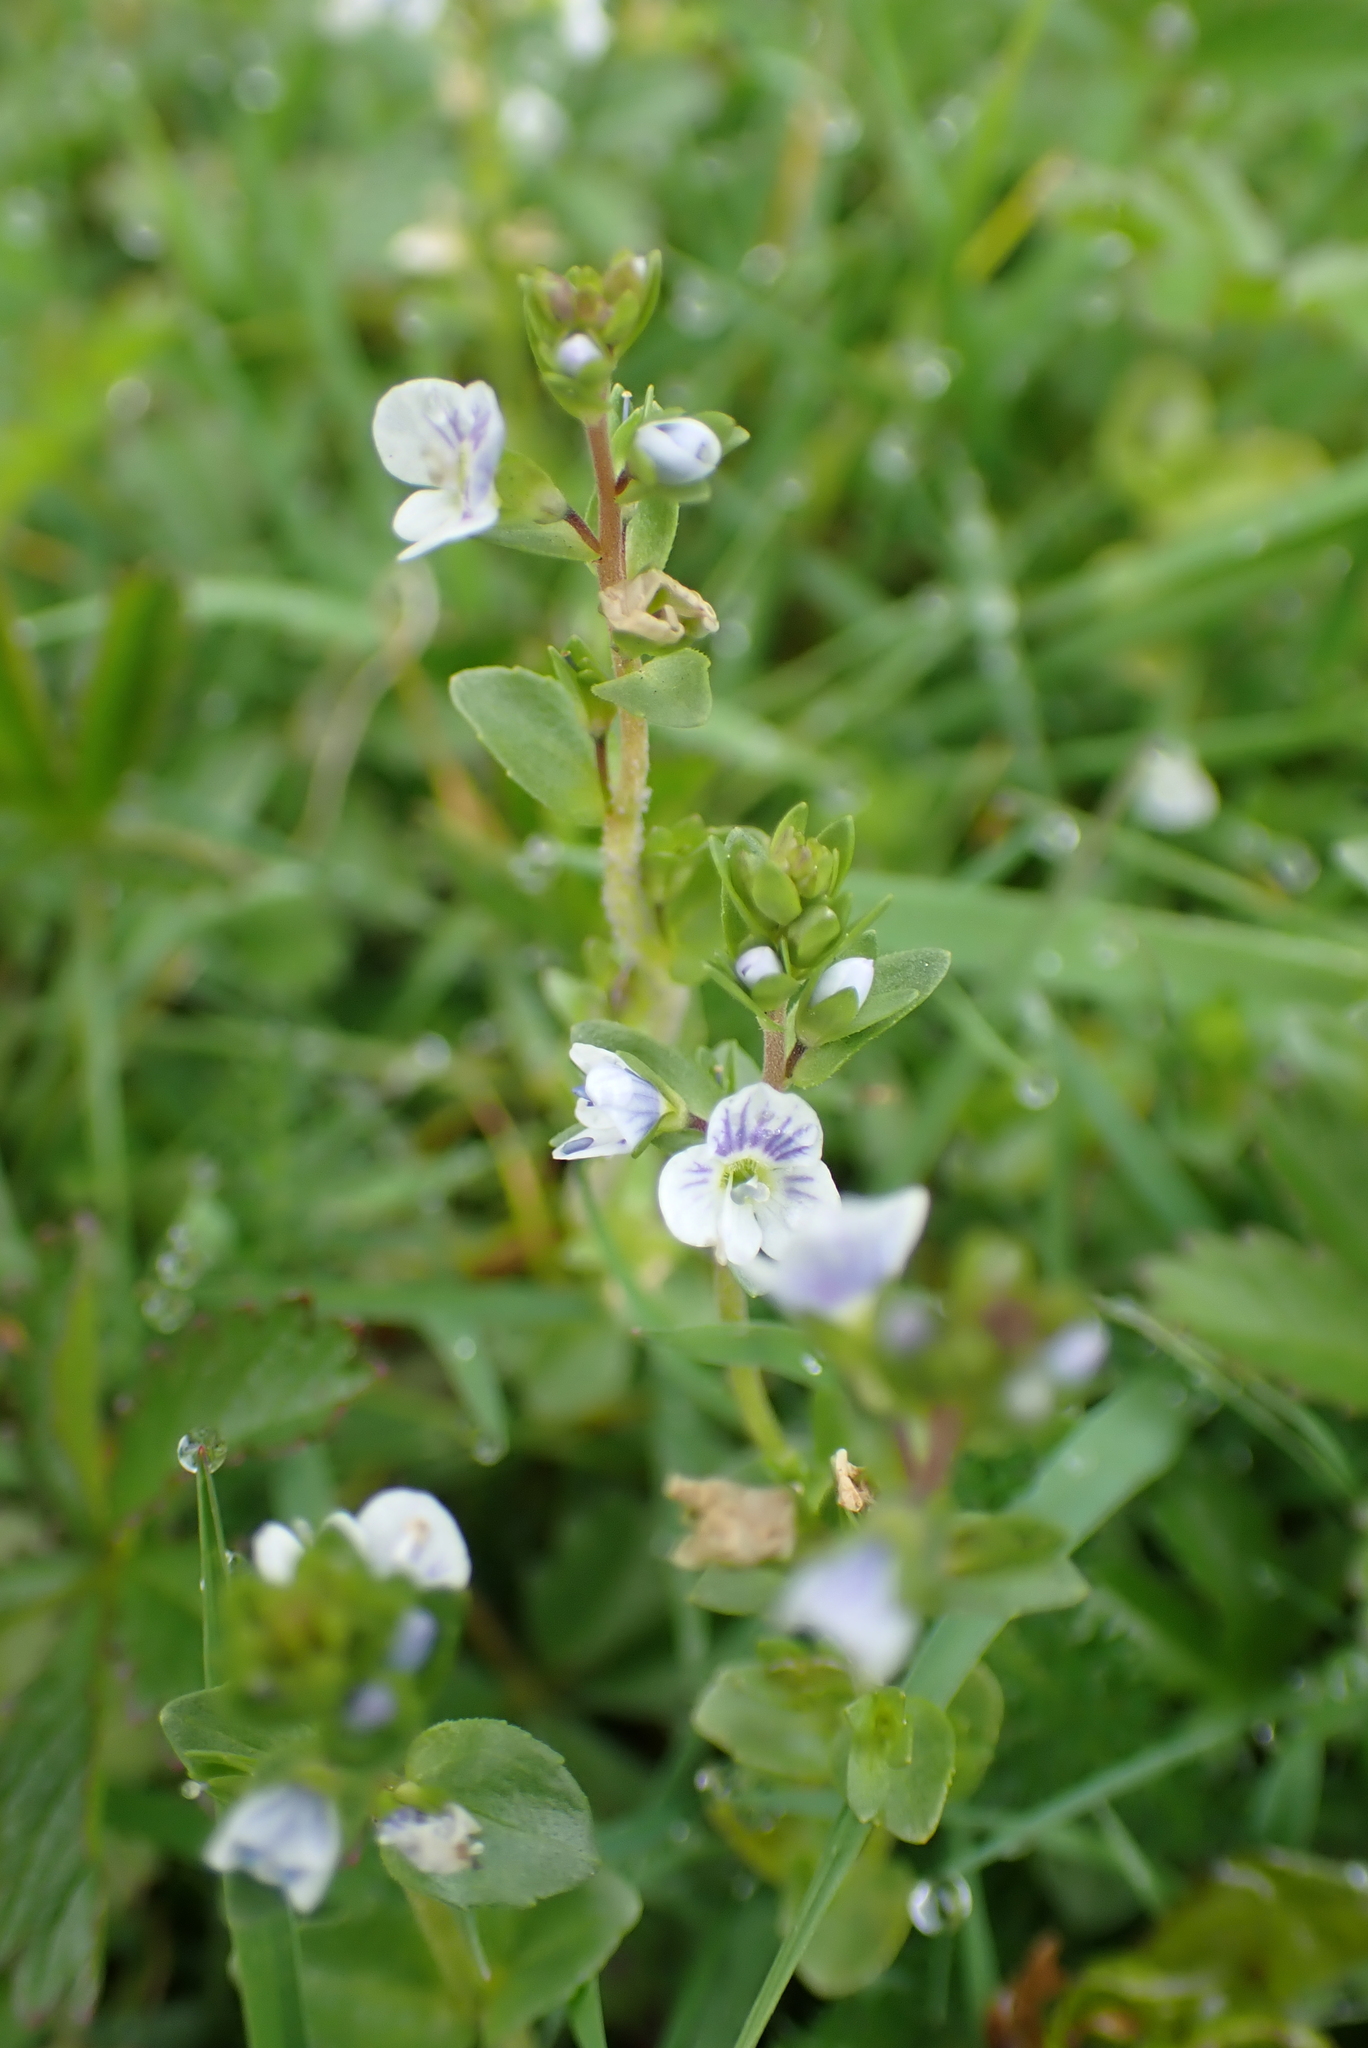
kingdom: Plantae
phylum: Tracheophyta
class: Magnoliopsida
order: Lamiales
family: Plantaginaceae
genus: Veronica
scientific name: Veronica serpyllifolia
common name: Thyme-leaved speedwell
